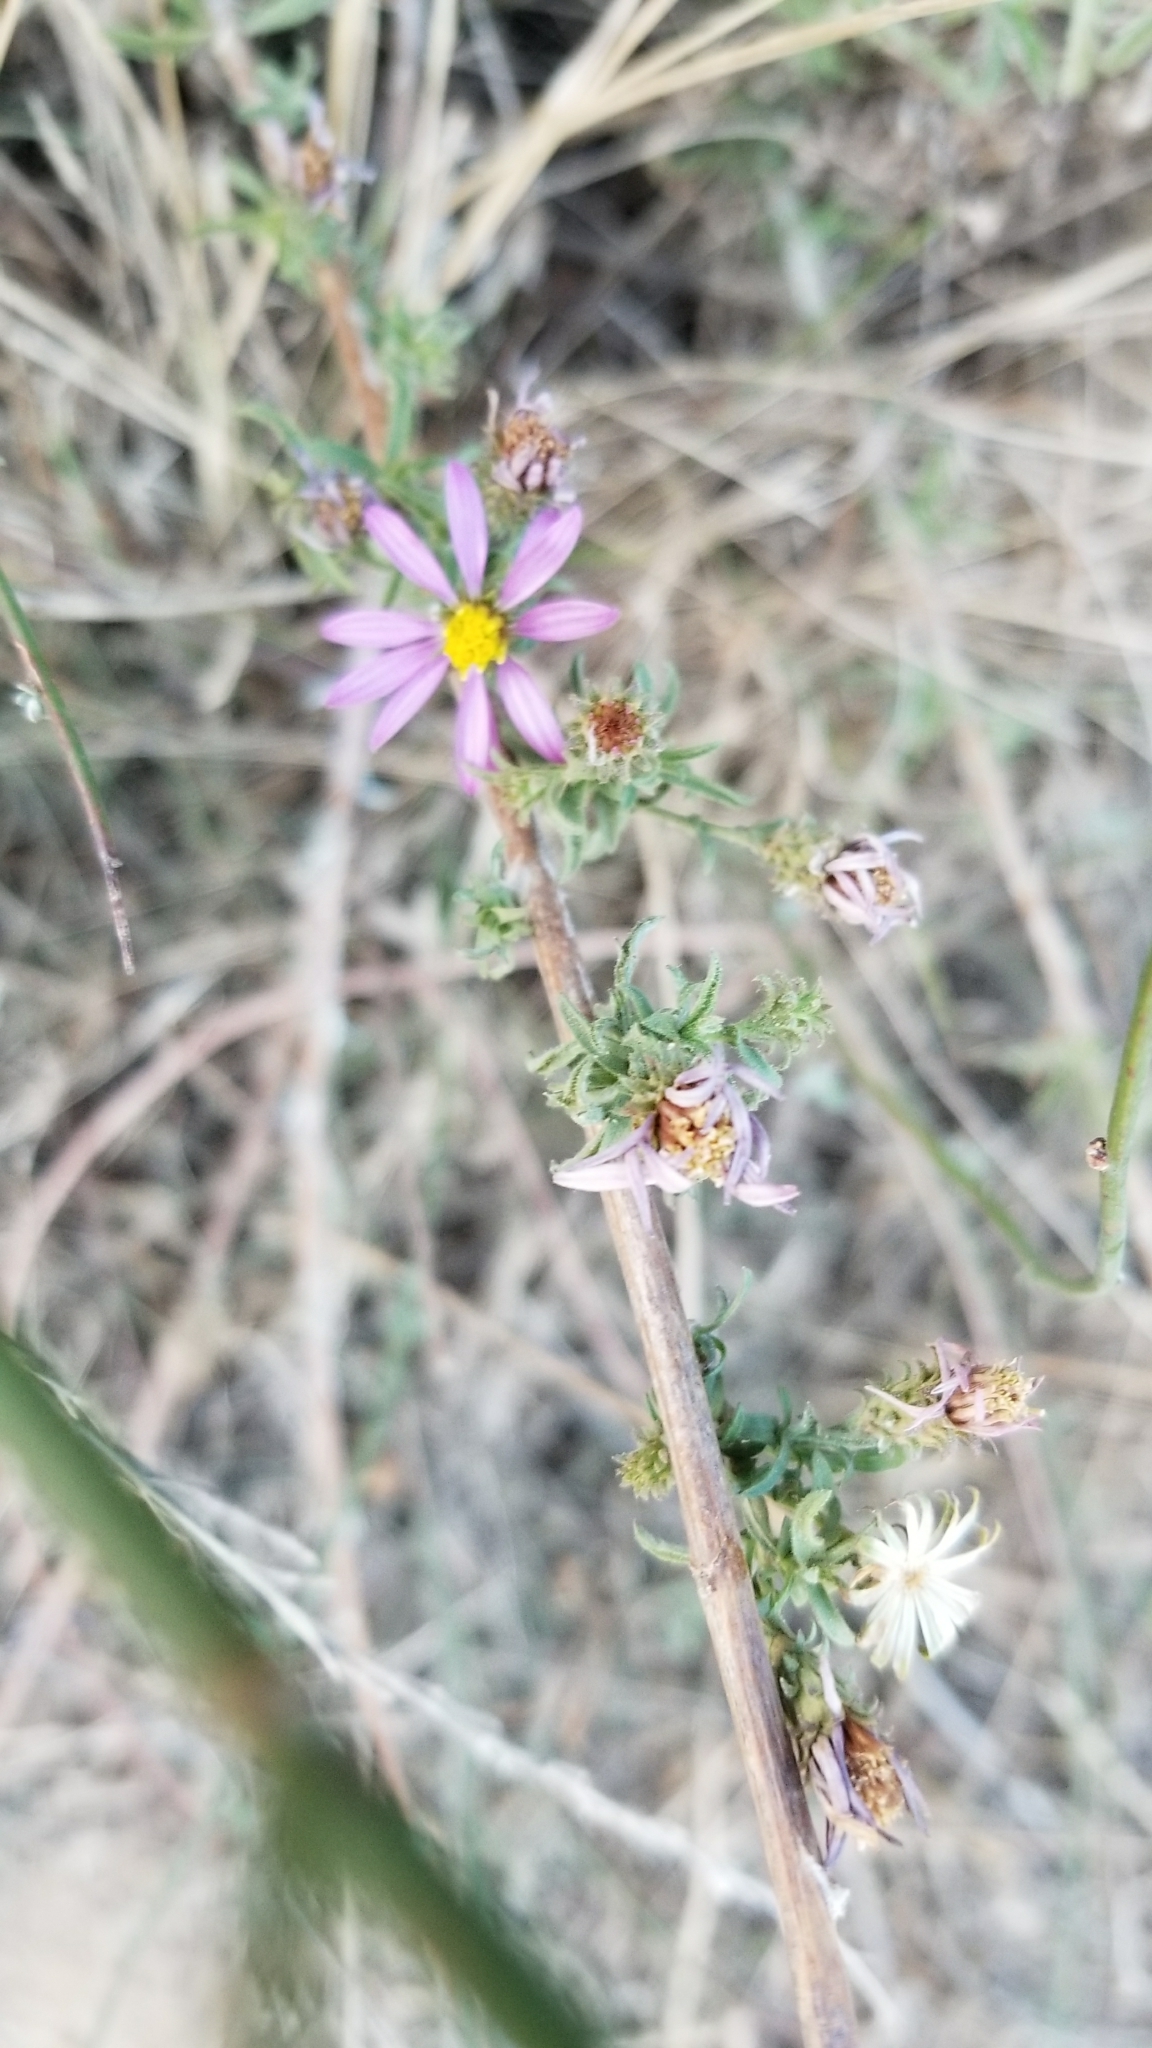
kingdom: Plantae
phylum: Tracheophyta
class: Magnoliopsida
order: Asterales
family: Asteraceae
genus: Corethrogyne
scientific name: Corethrogyne filaginifolia
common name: Sand-aster
